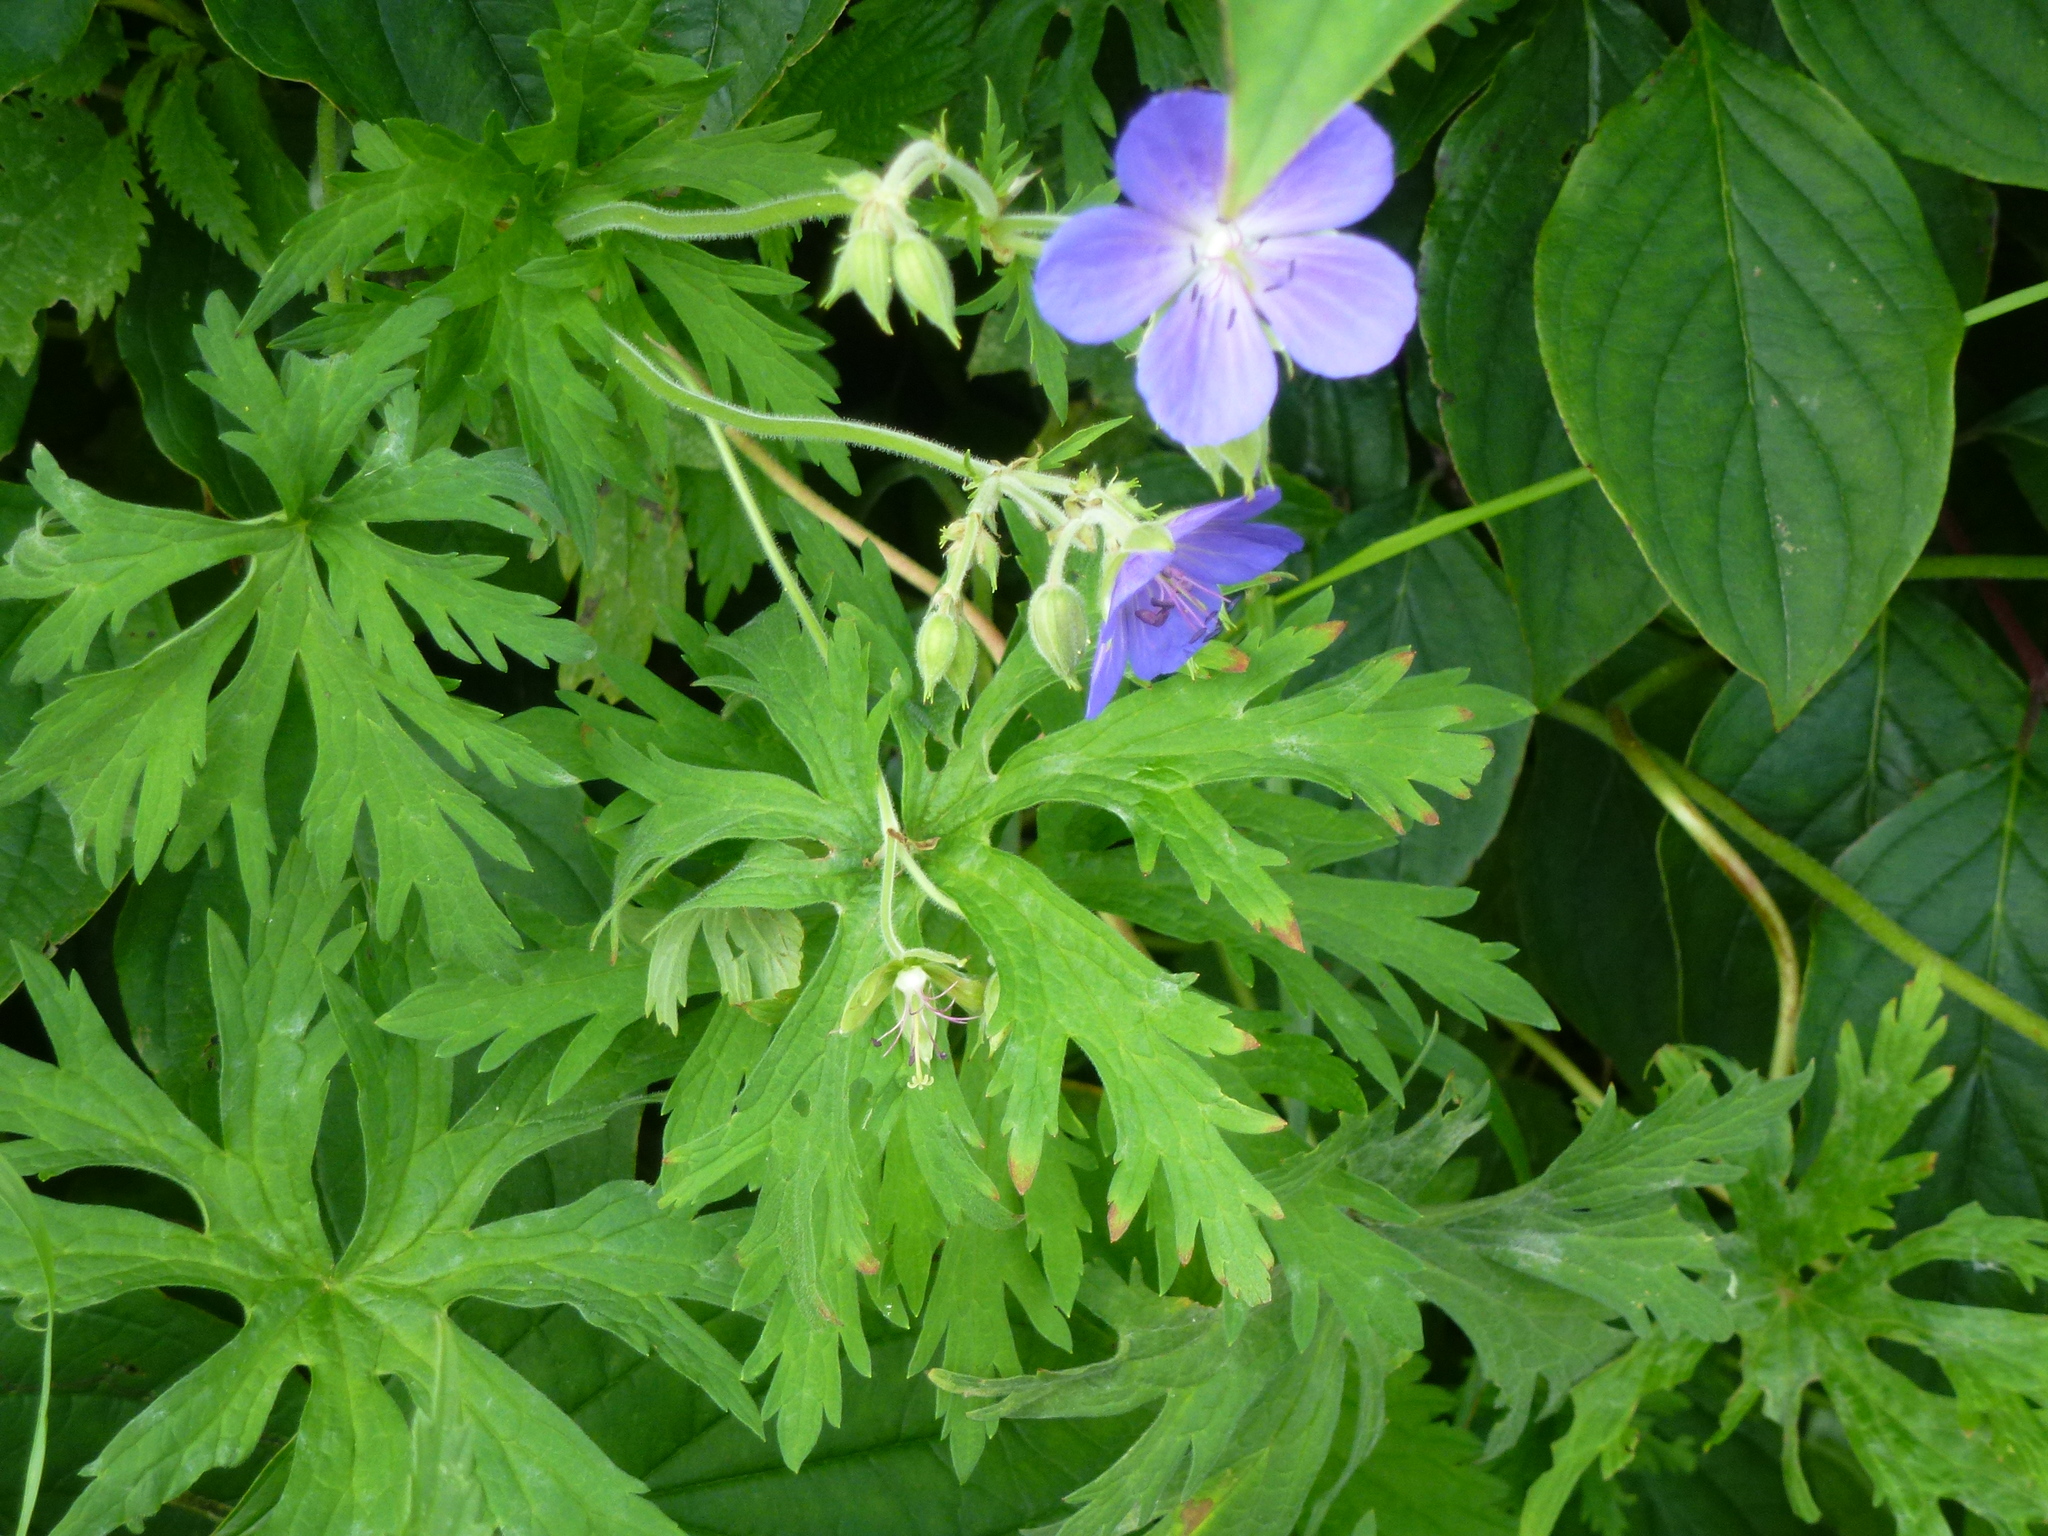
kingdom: Plantae
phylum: Tracheophyta
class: Magnoliopsida
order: Geraniales
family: Geraniaceae
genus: Geranium
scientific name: Geranium pratense
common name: Meadow crane's-bill
